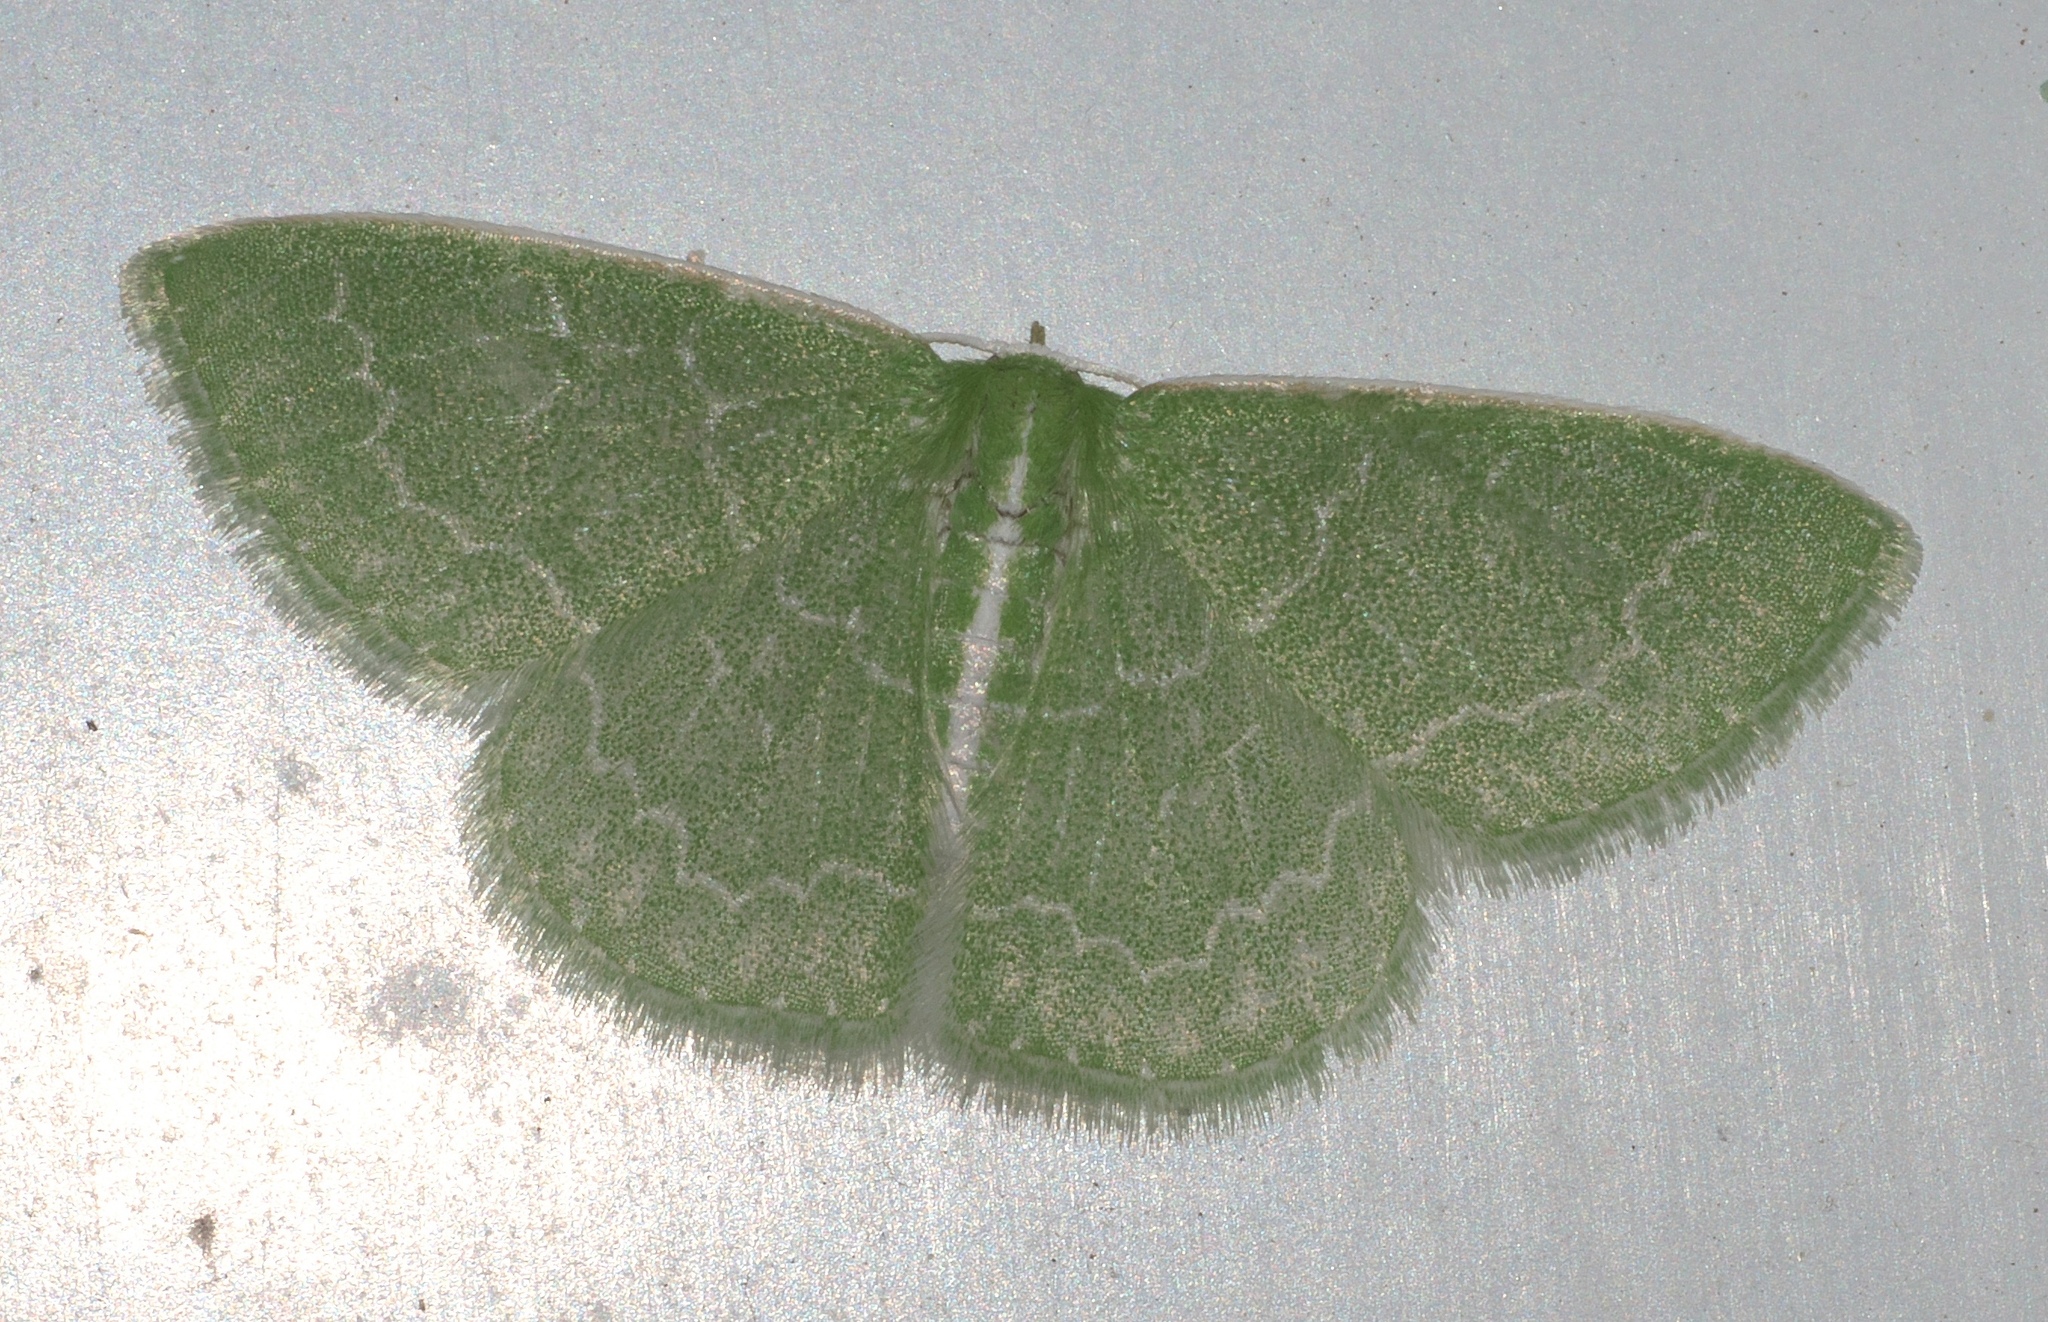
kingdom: Animalia
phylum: Arthropoda
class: Insecta
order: Lepidoptera
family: Geometridae
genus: Synchlora
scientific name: Synchlora frondaria
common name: Southern emerald
